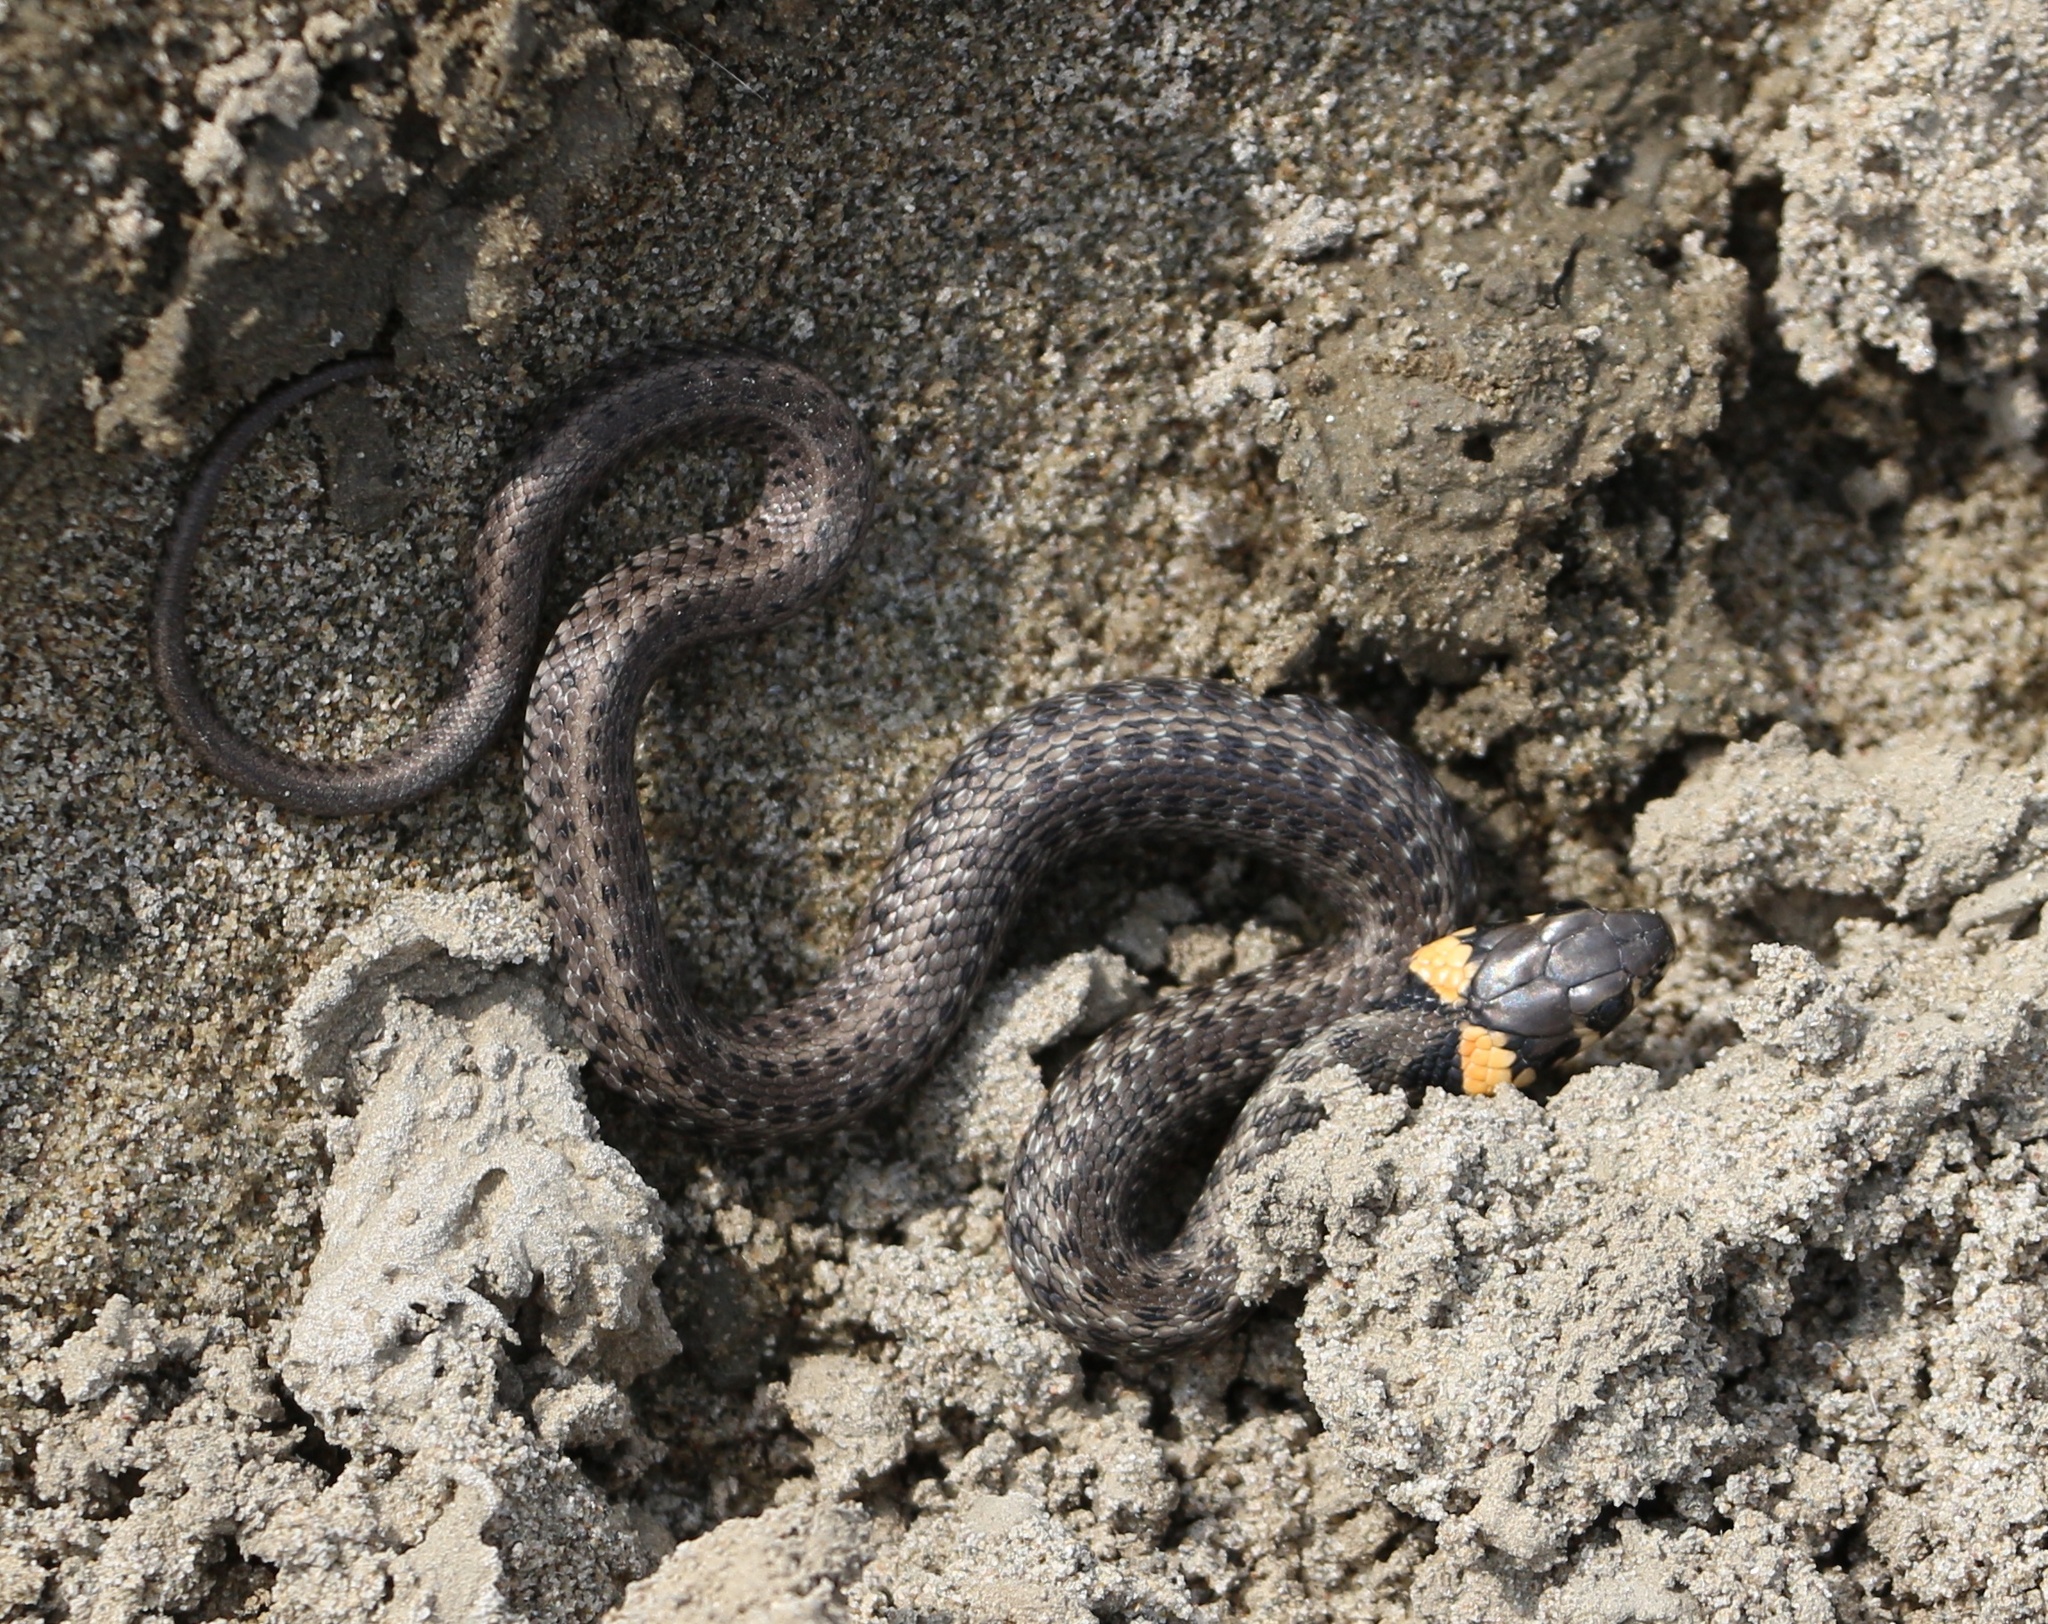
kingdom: Animalia
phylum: Chordata
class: Squamata
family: Colubridae
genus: Natrix
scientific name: Natrix natrix
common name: Grass snake
